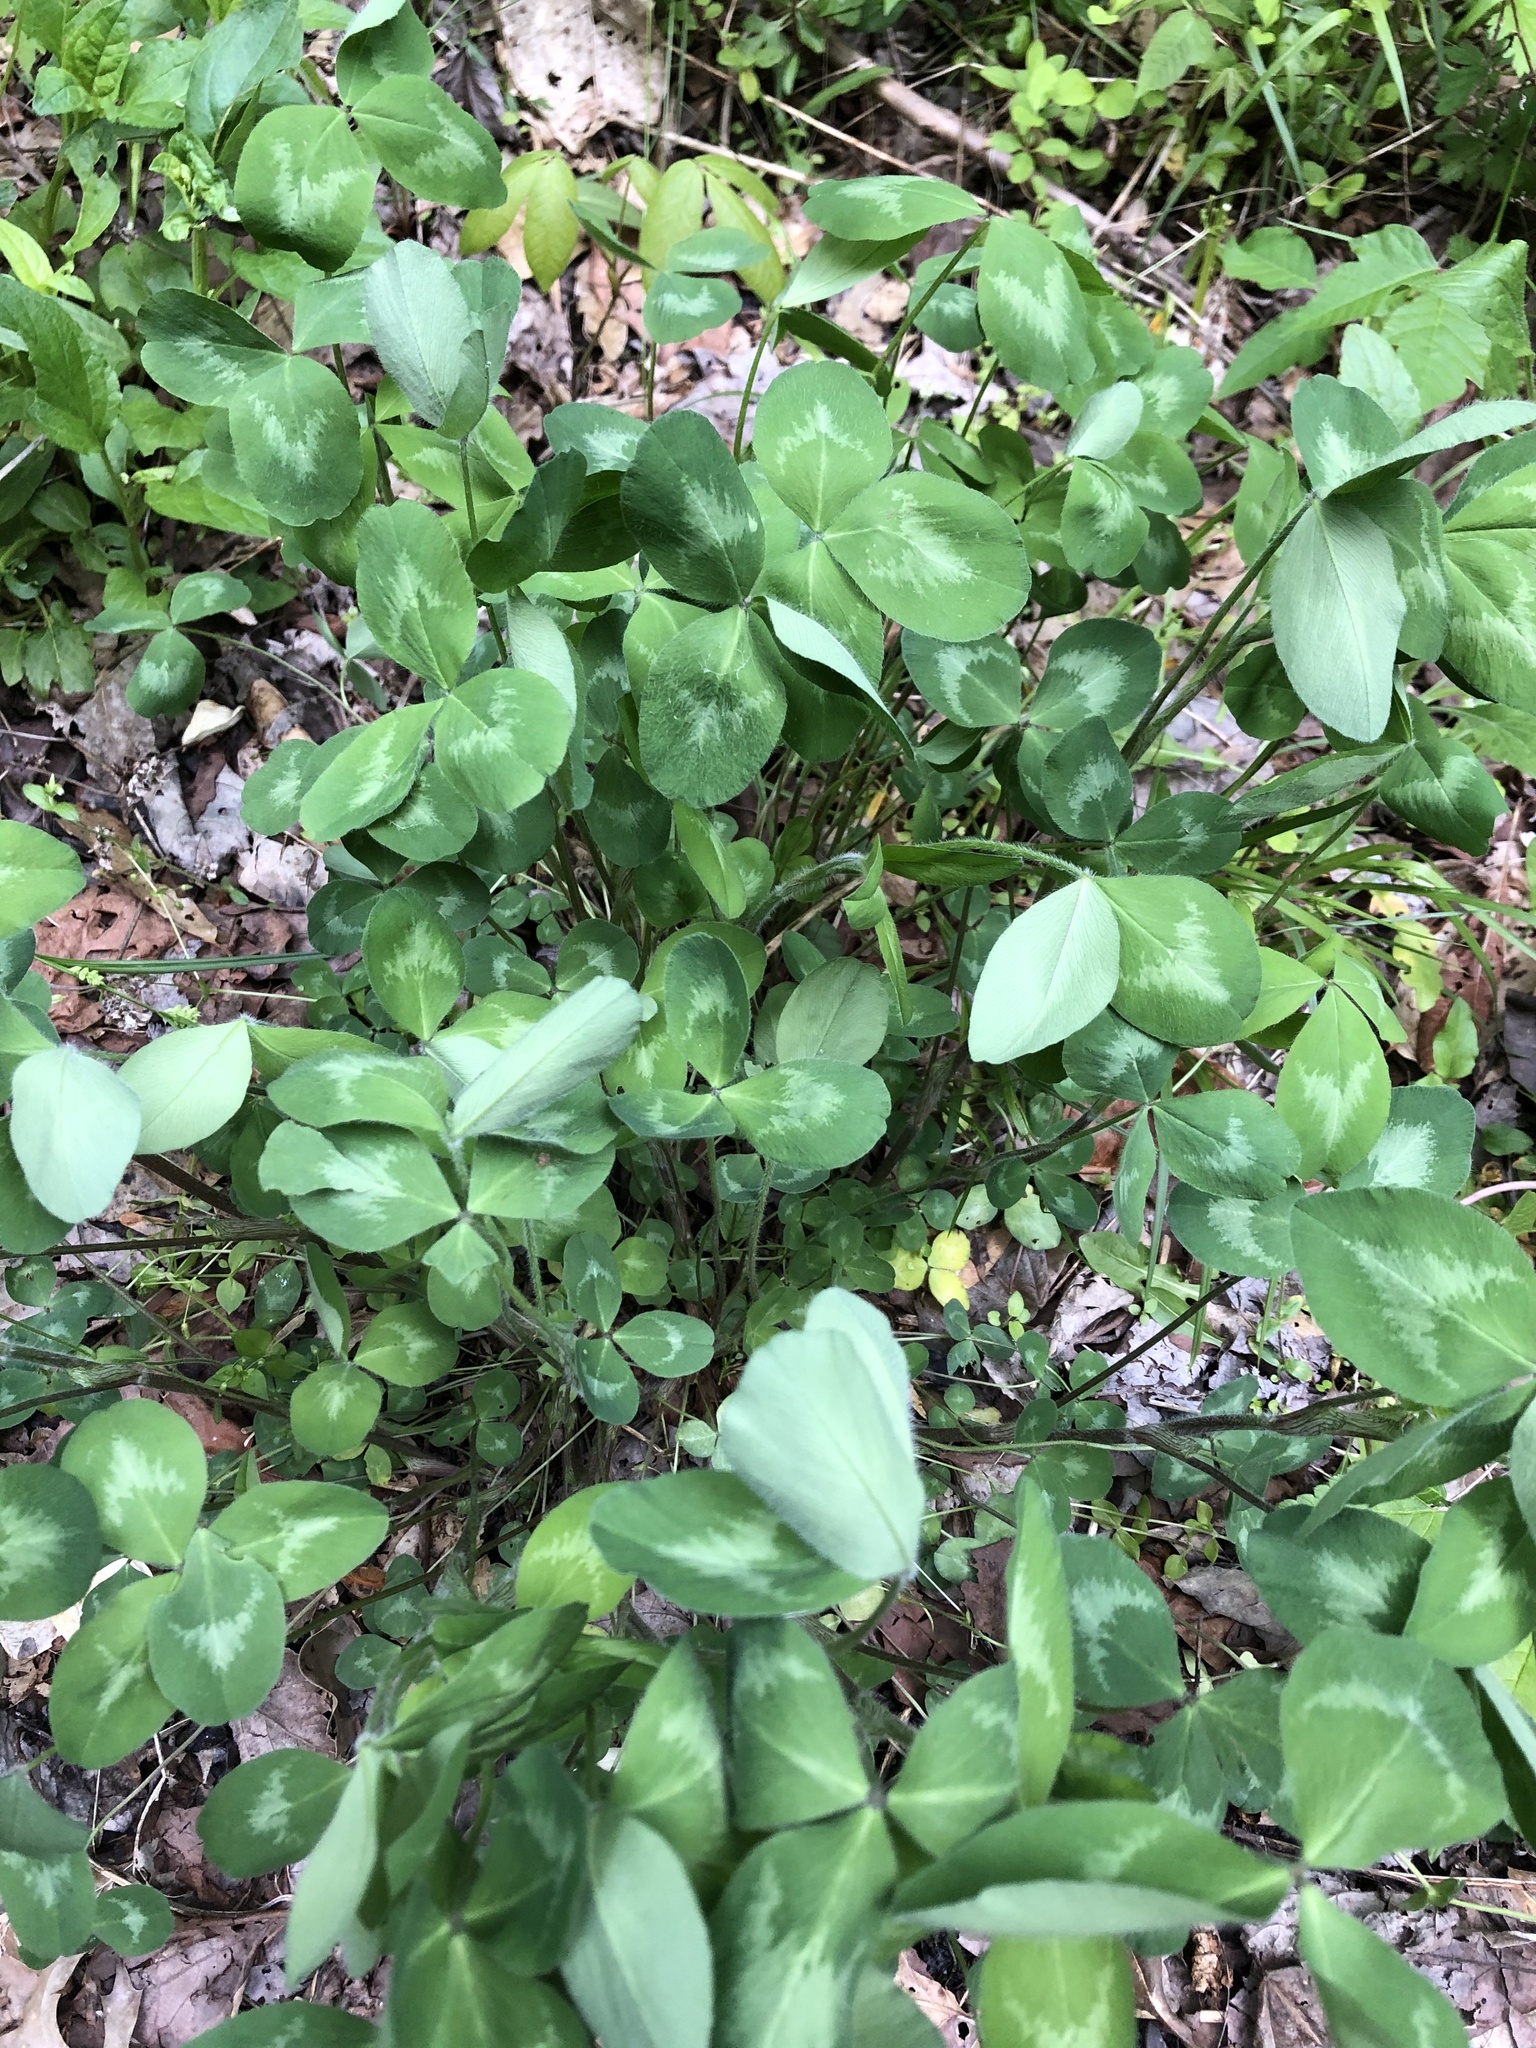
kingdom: Plantae
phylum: Tracheophyta
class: Magnoliopsida
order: Fabales
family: Fabaceae
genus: Trifolium
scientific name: Trifolium pratense
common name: Red clover
